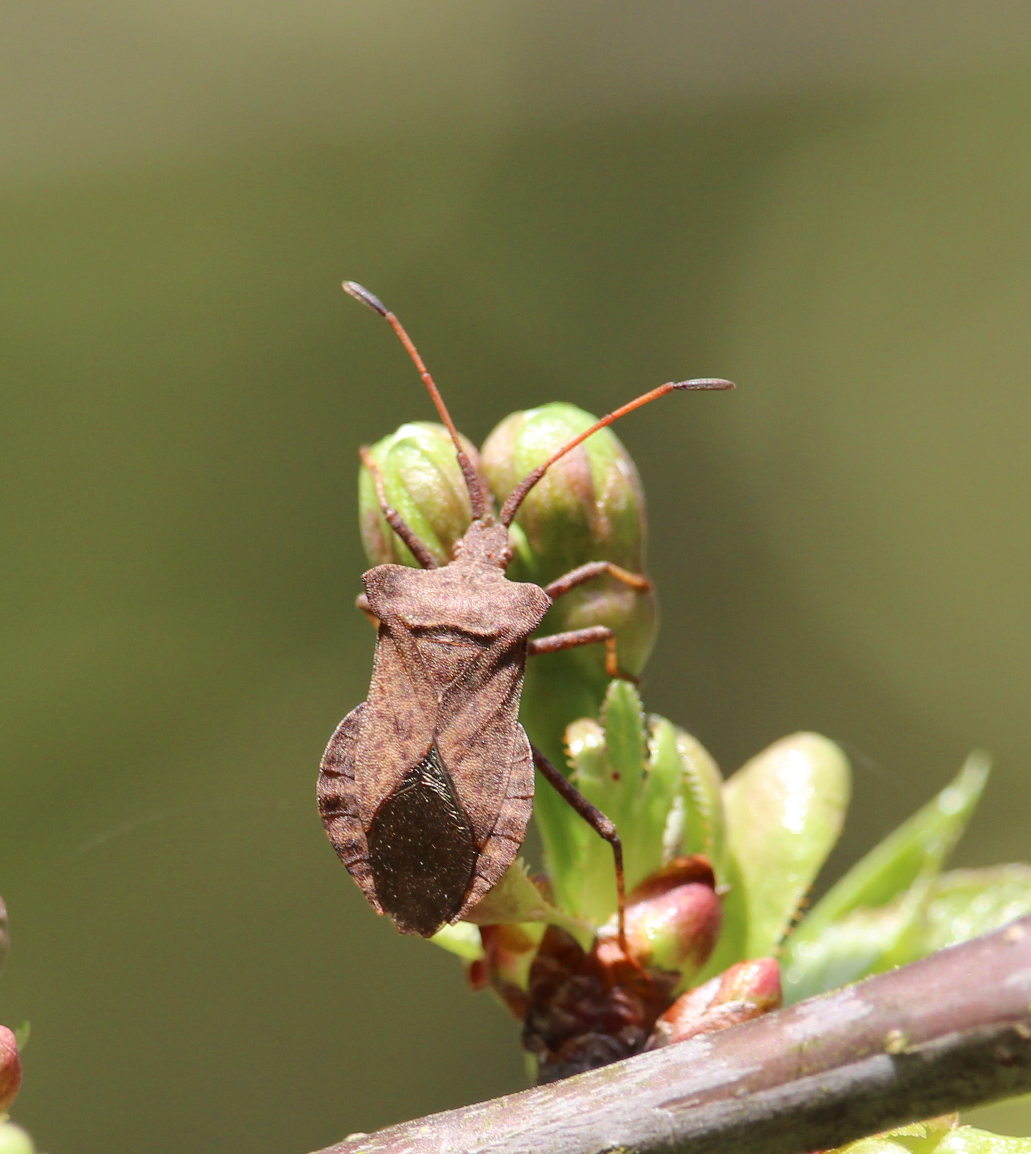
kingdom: Animalia
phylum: Arthropoda
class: Insecta
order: Hemiptera
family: Coreidae
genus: Coreus
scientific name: Coreus marginatus
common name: Dock bug
